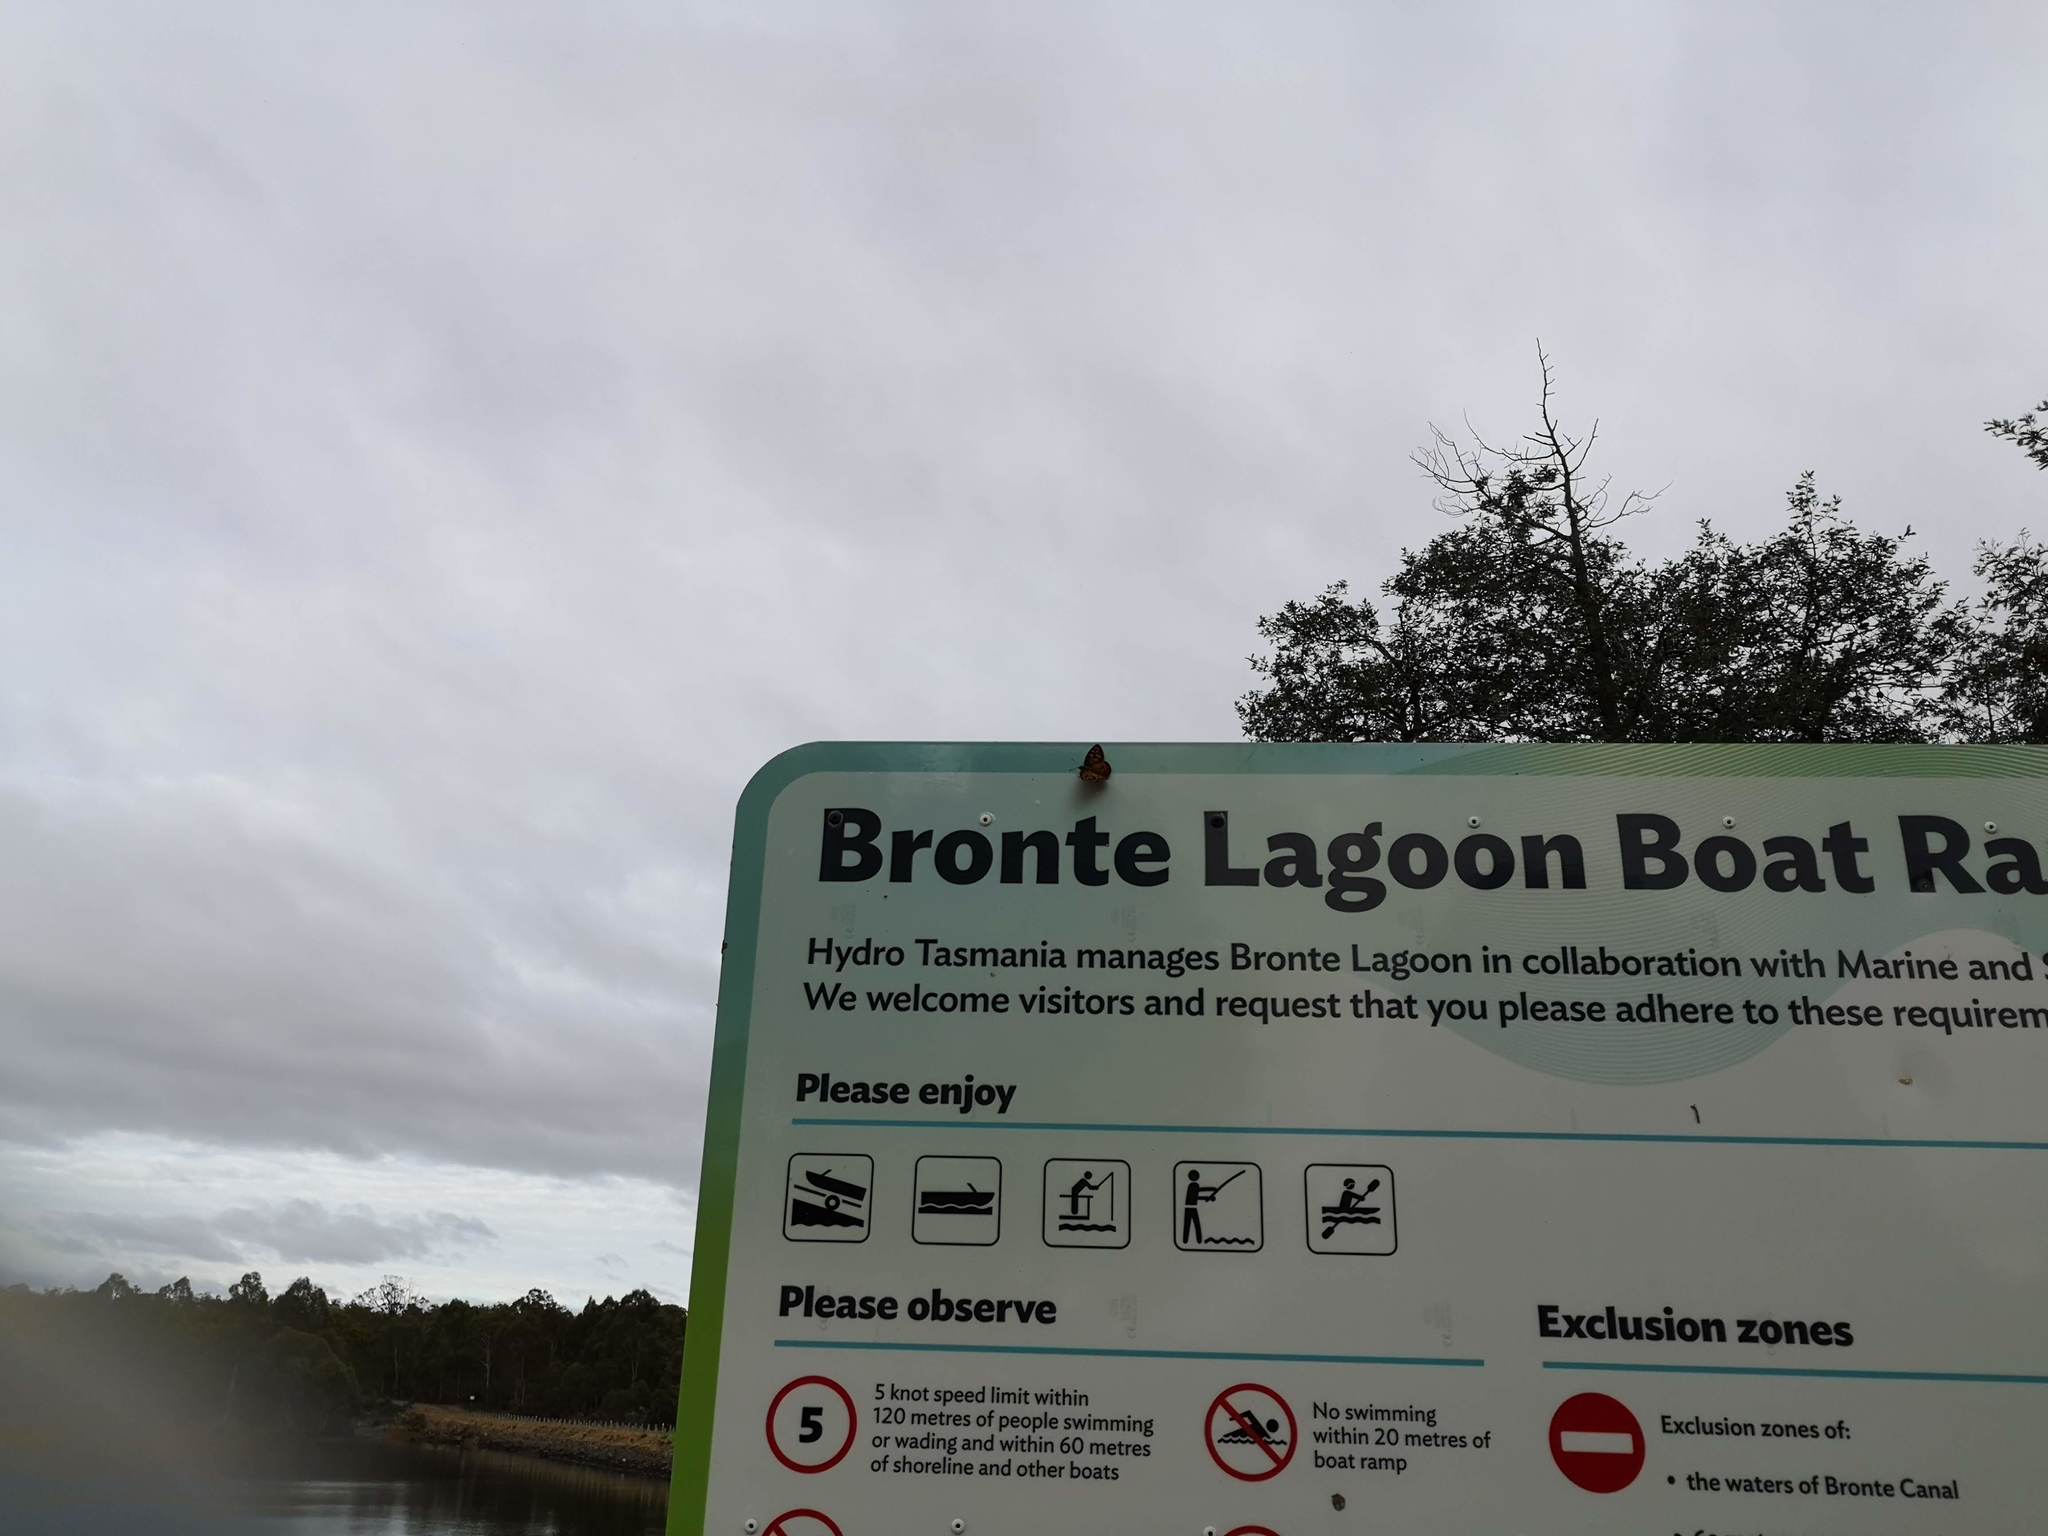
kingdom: Animalia
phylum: Arthropoda
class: Insecta
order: Lepidoptera
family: Nymphalidae
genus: Heteronympha
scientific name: Heteronympha penelope
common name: Shouldered brown
